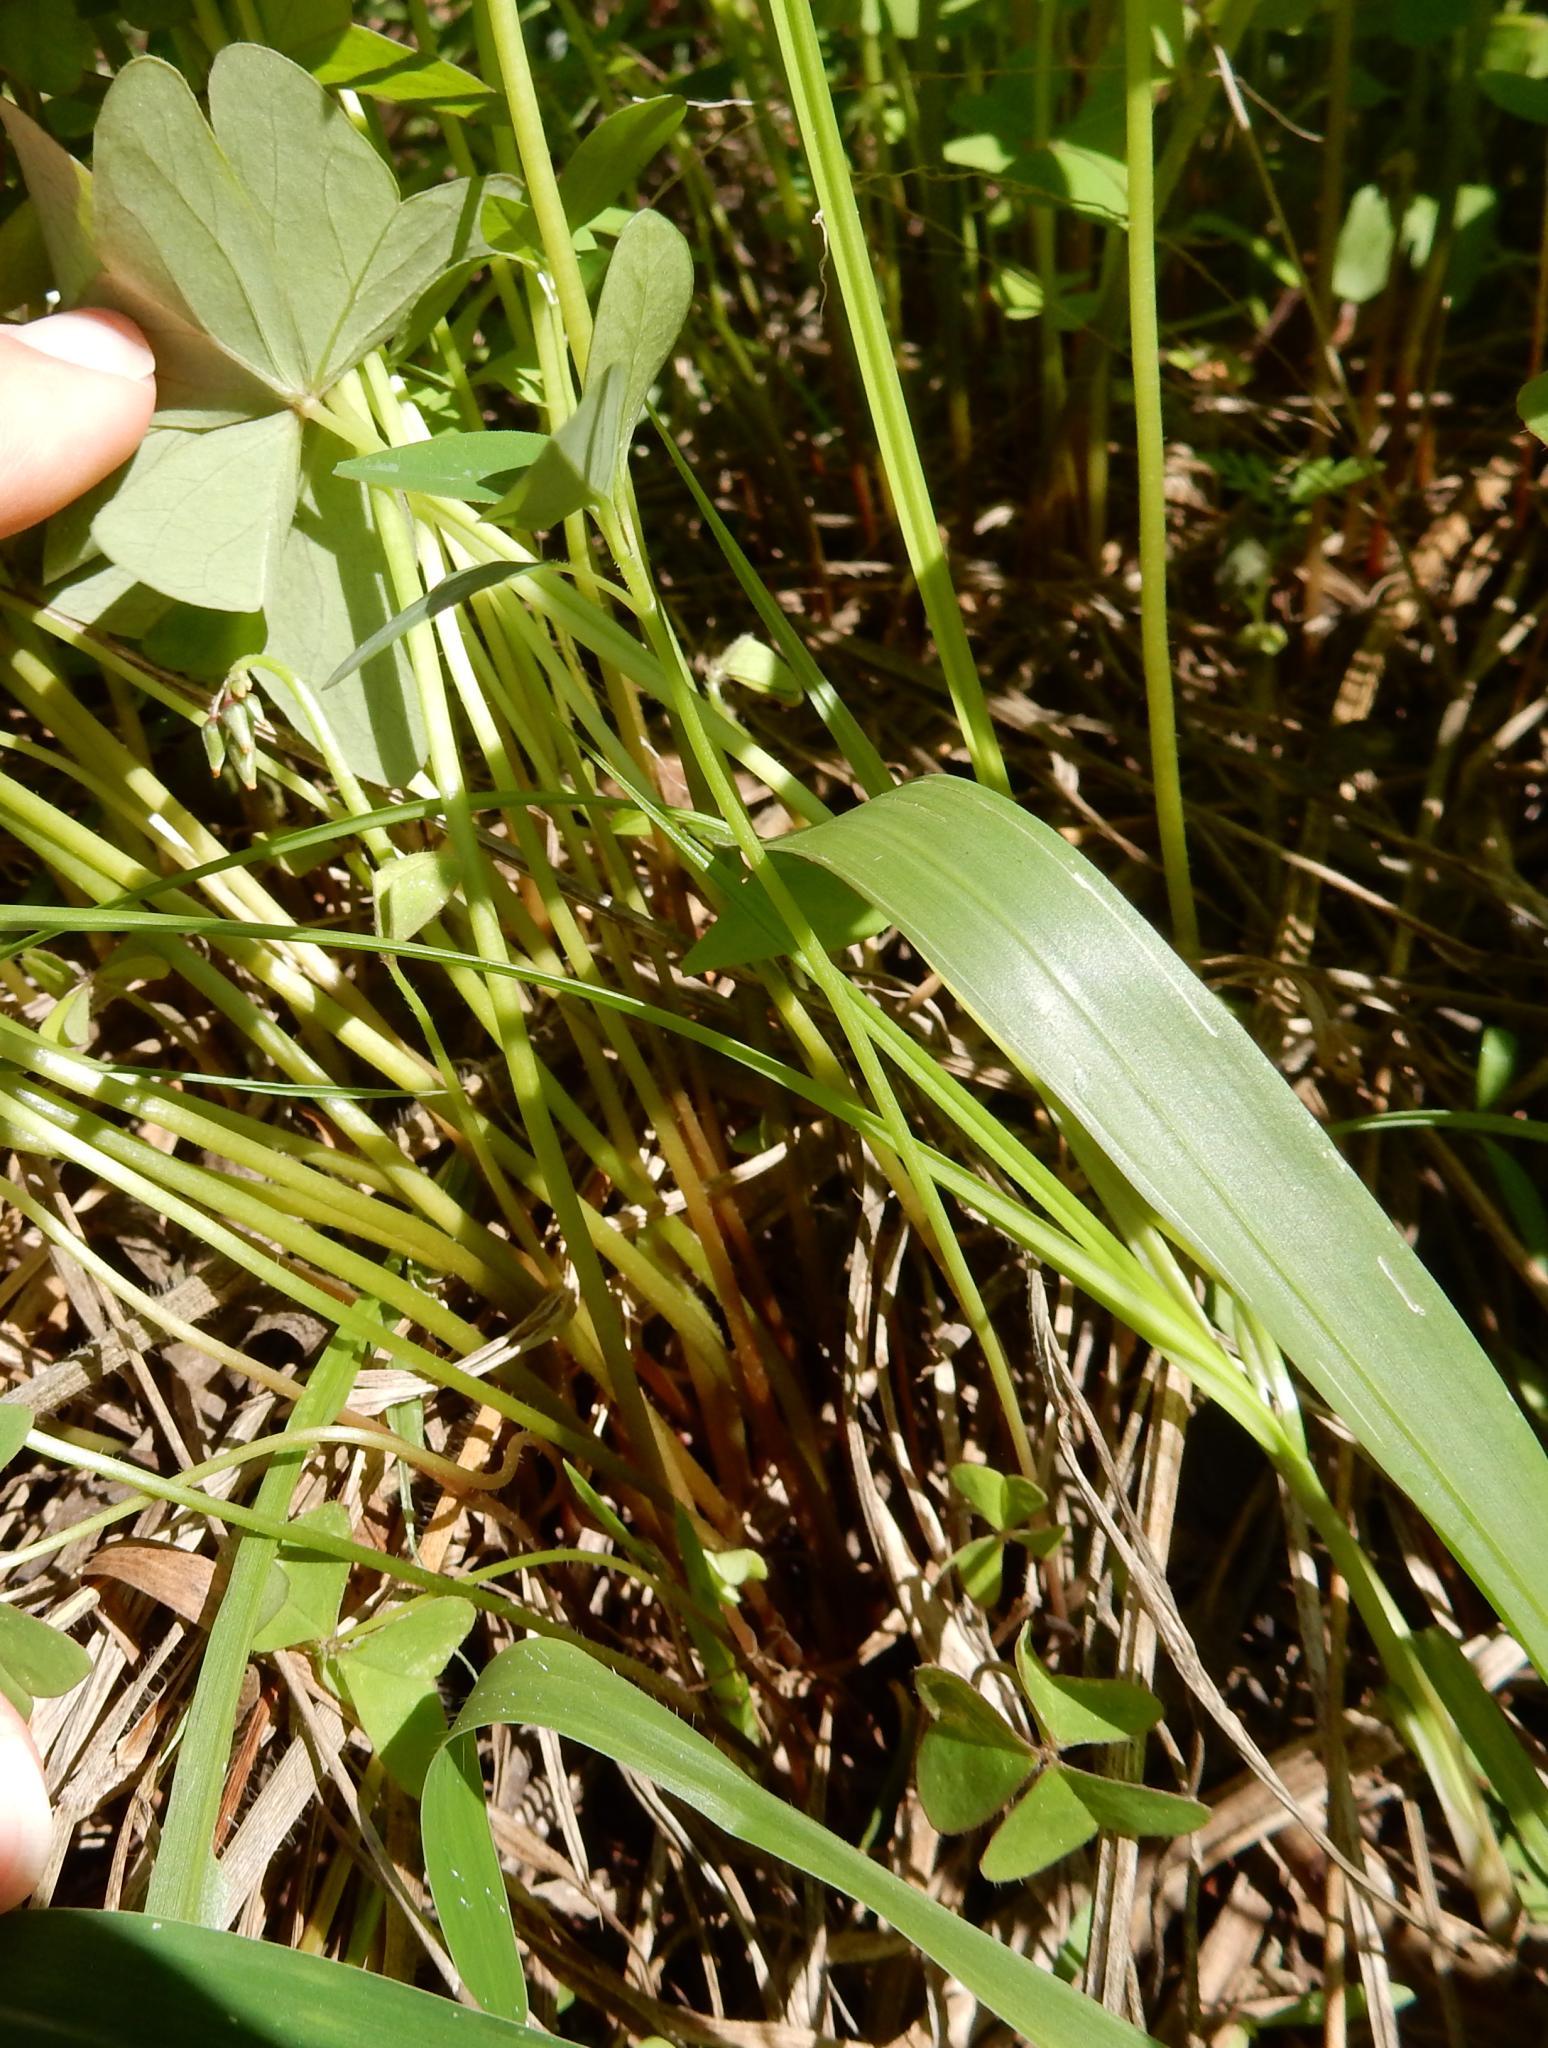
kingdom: Plantae
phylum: Tracheophyta
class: Magnoliopsida
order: Oxalidales
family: Oxalidaceae
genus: Oxalis
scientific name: Oxalis latifolia
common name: Garden pink-sorrel
